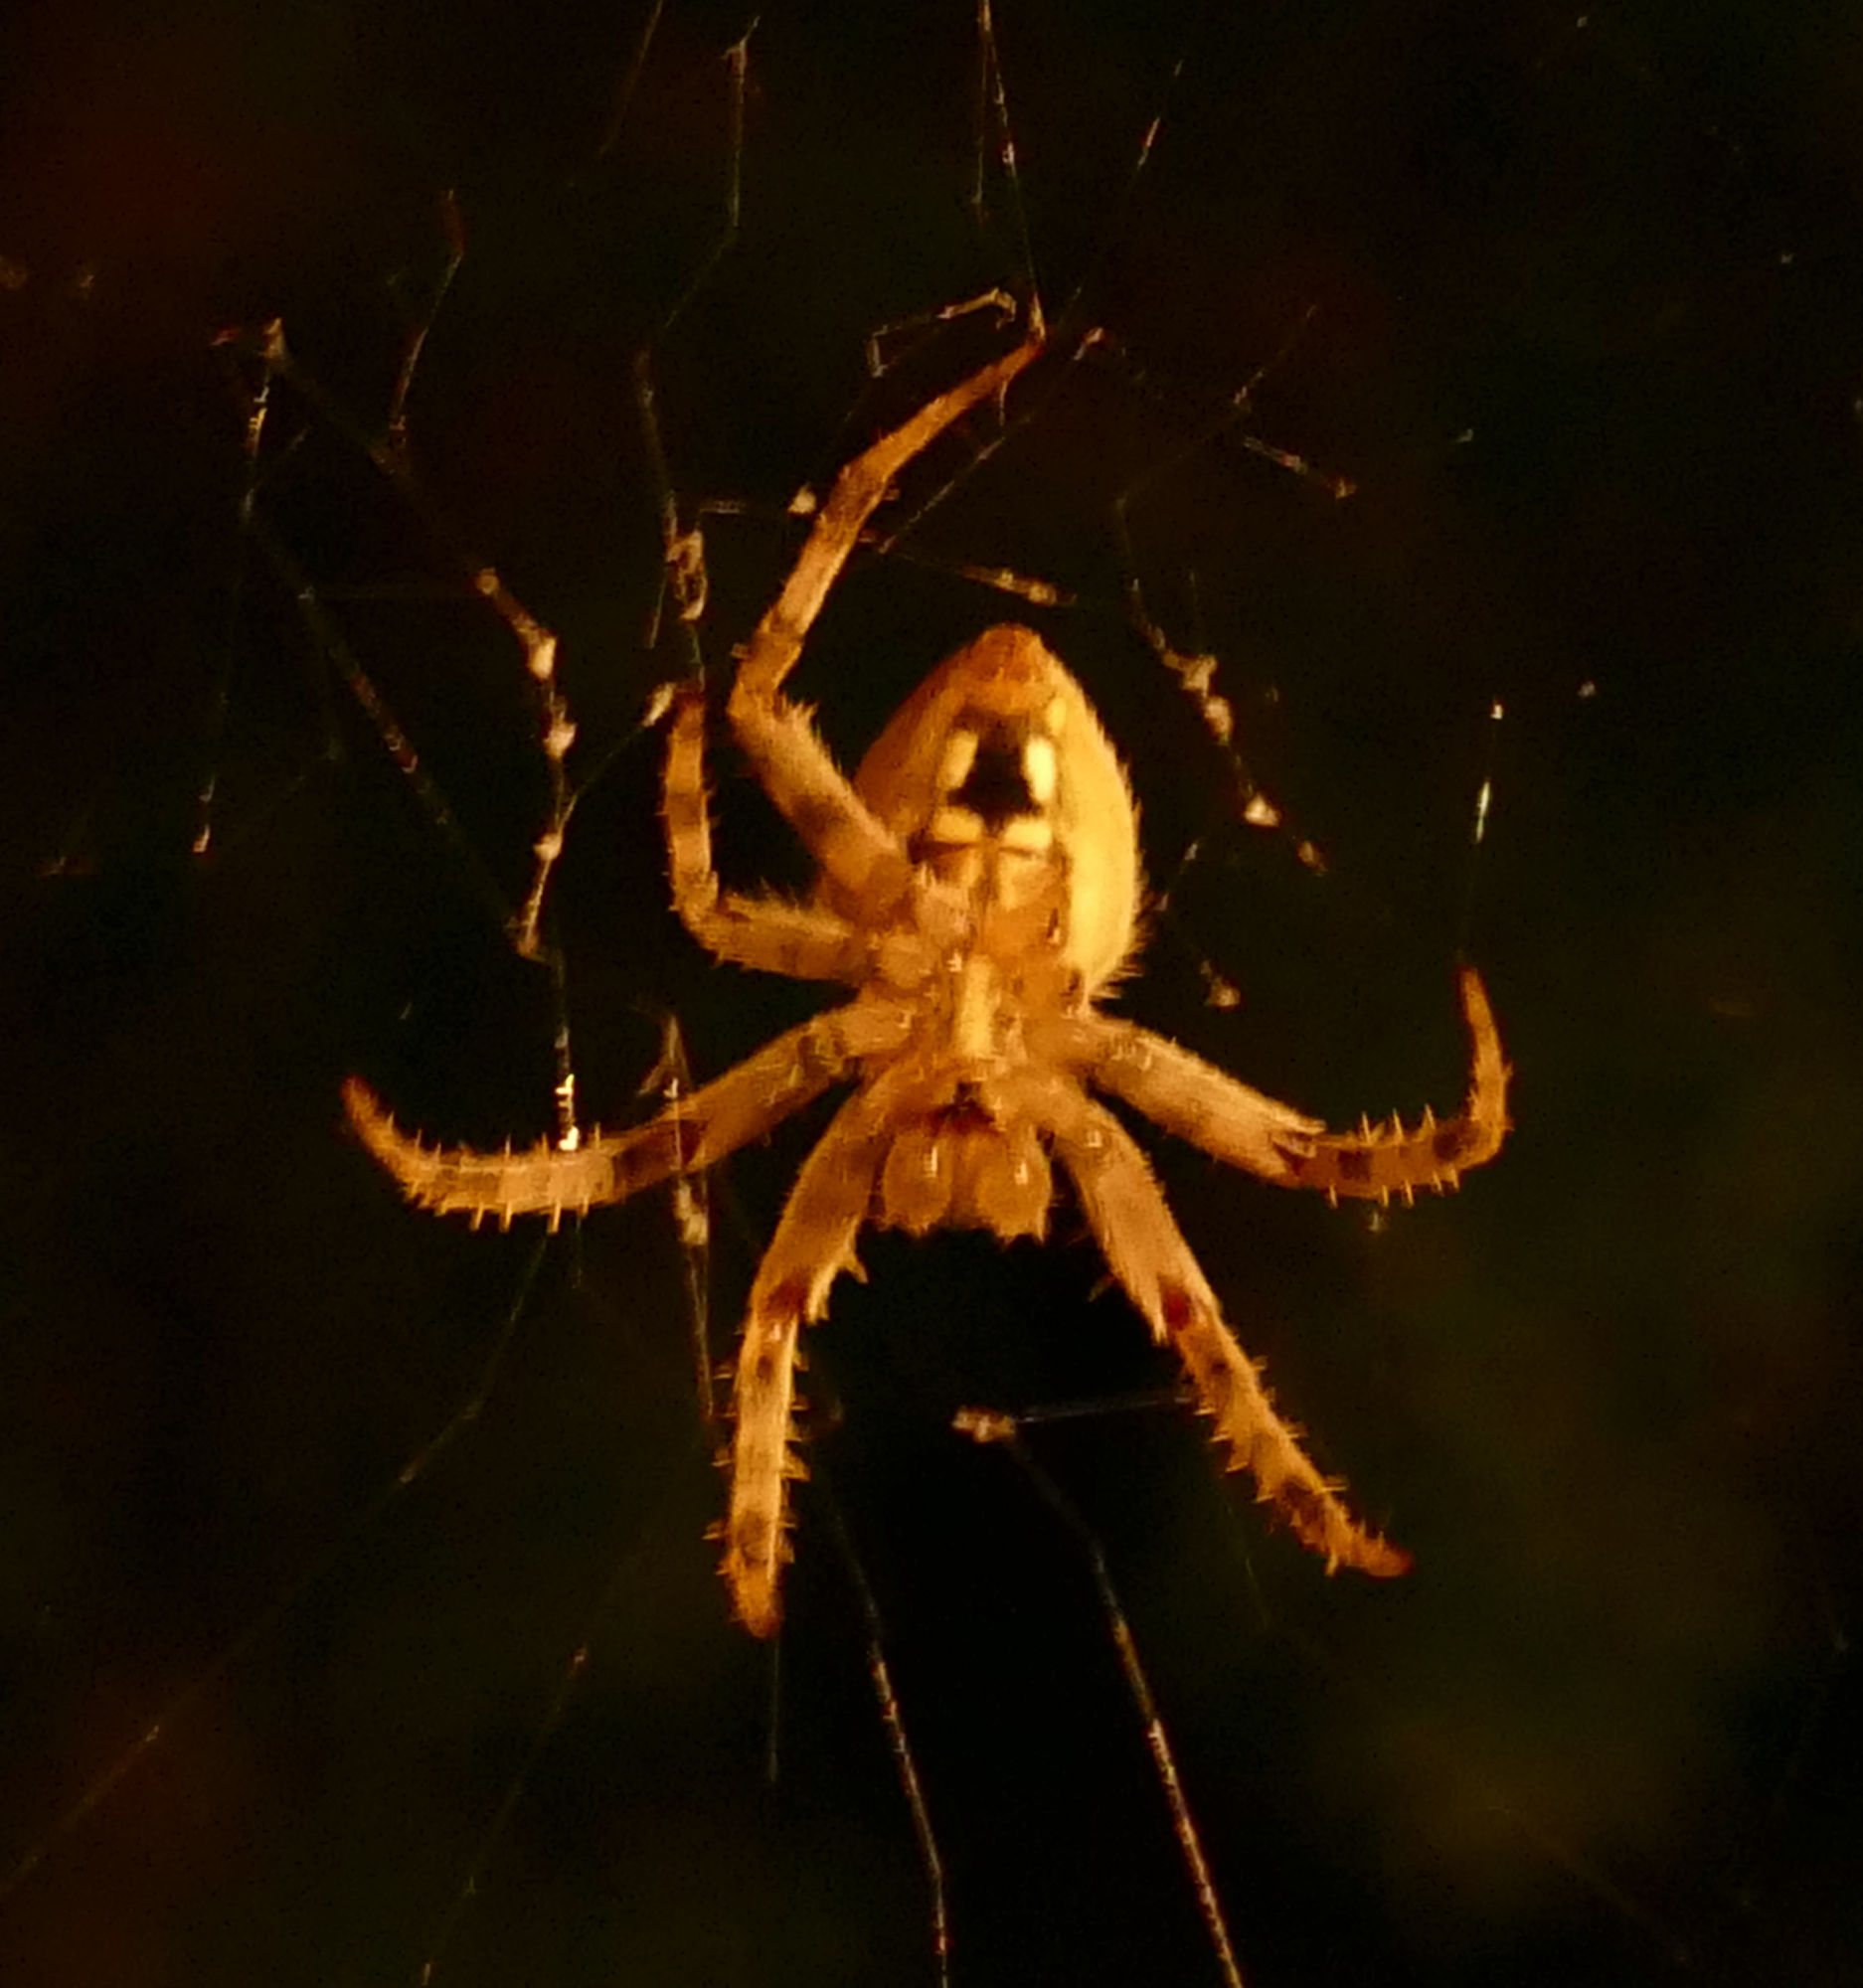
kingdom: Animalia
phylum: Arthropoda
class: Arachnida
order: Araneae
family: Araneidae
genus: Neoscona
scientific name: Neoscona crucifera
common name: Spotted orbweaver
